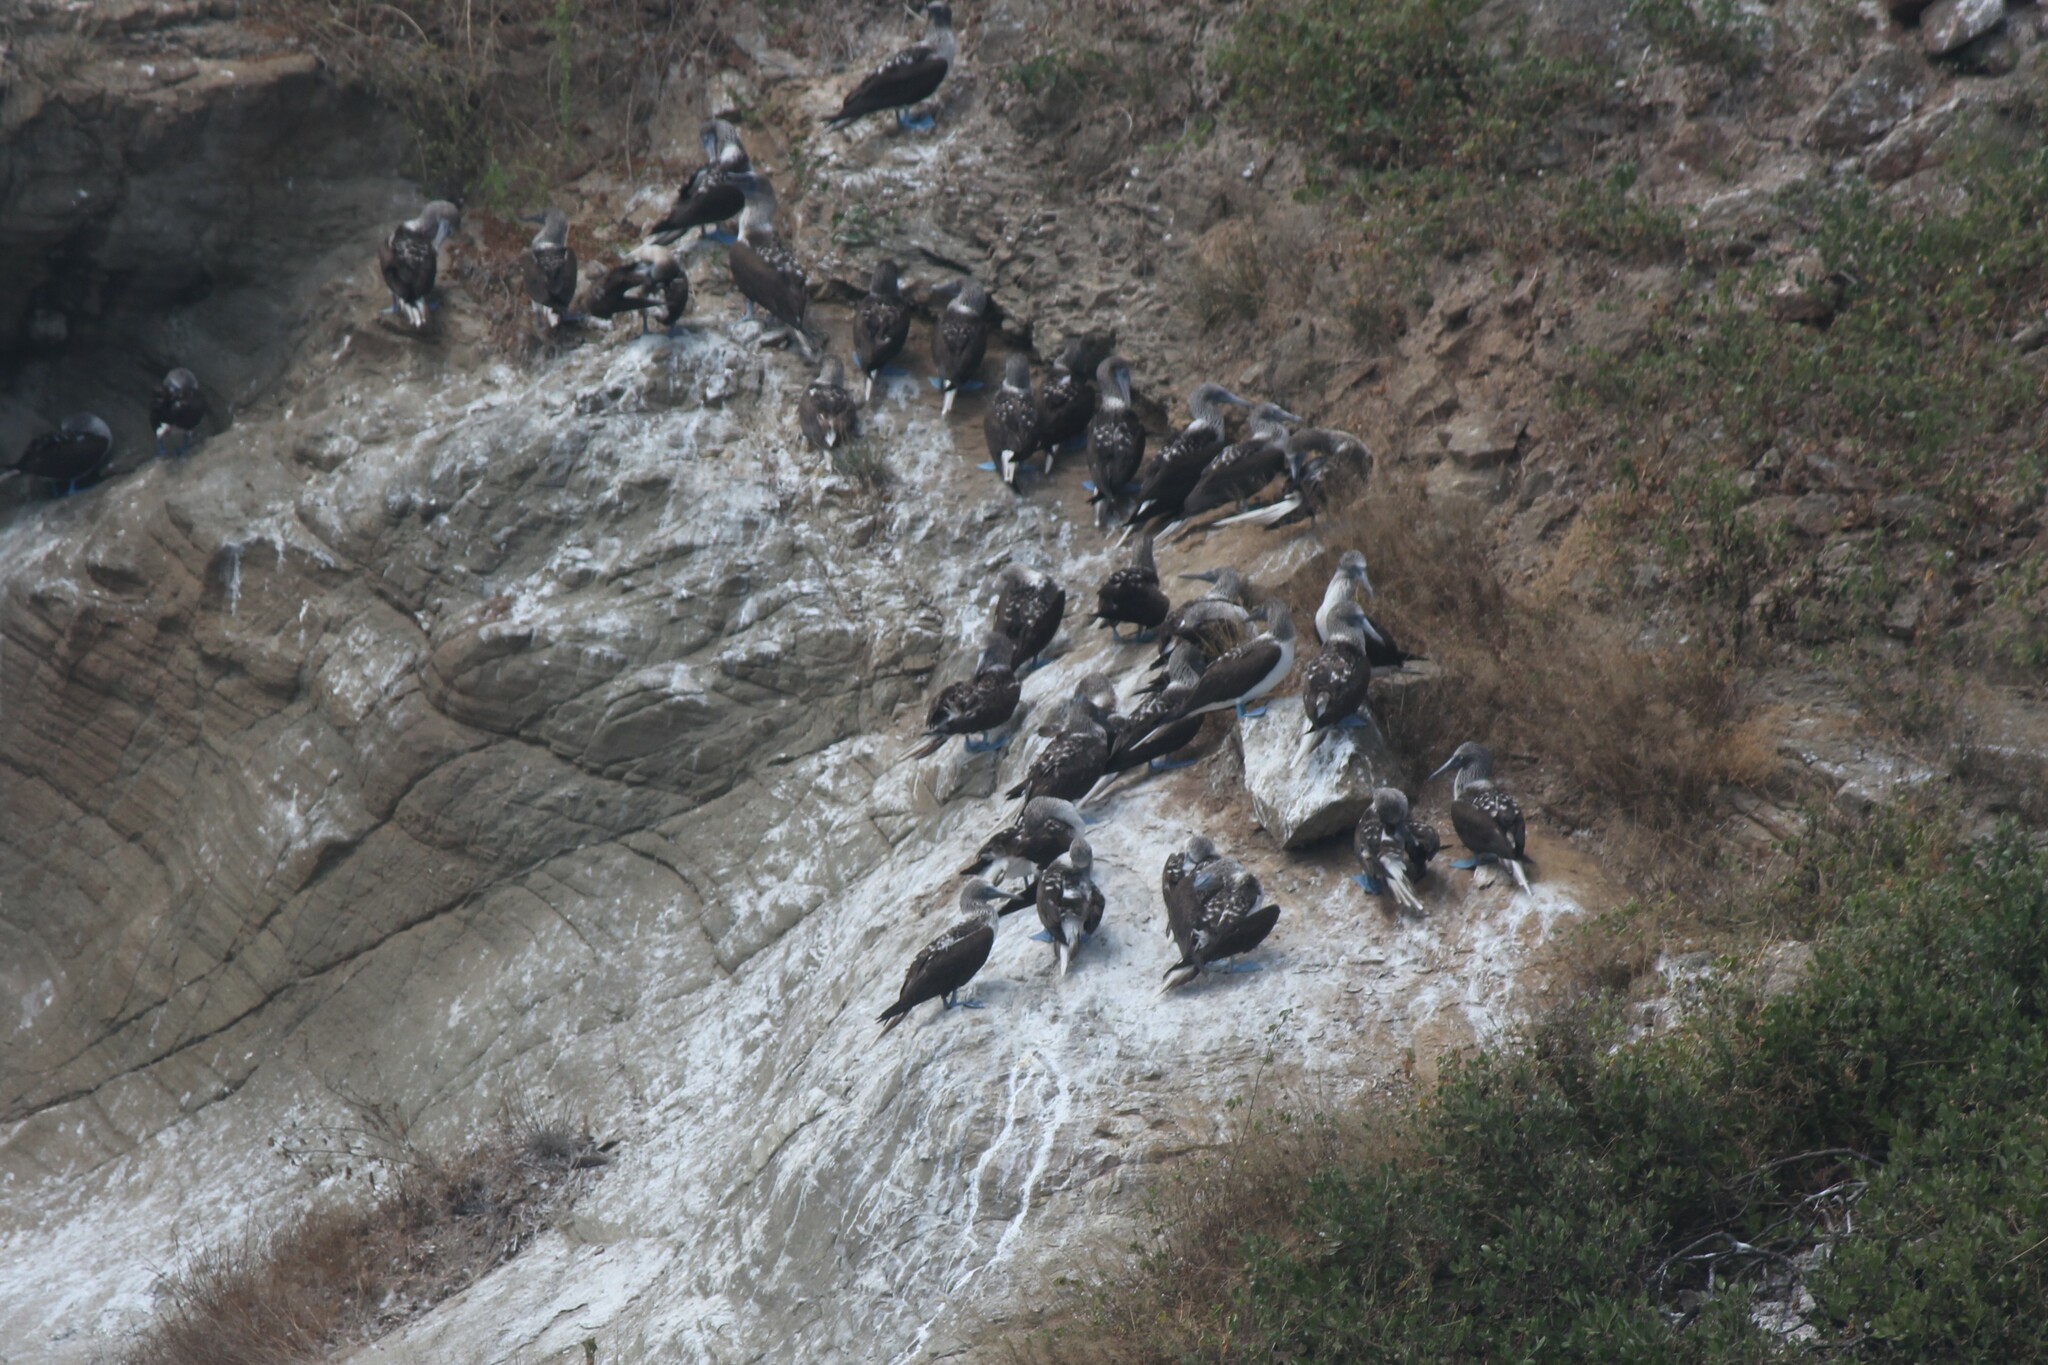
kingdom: Animalia
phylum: Chordata
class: Aves
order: Suliformes
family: Sulidae
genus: Sula
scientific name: Sula nebouxii
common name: Blue-footed booby
